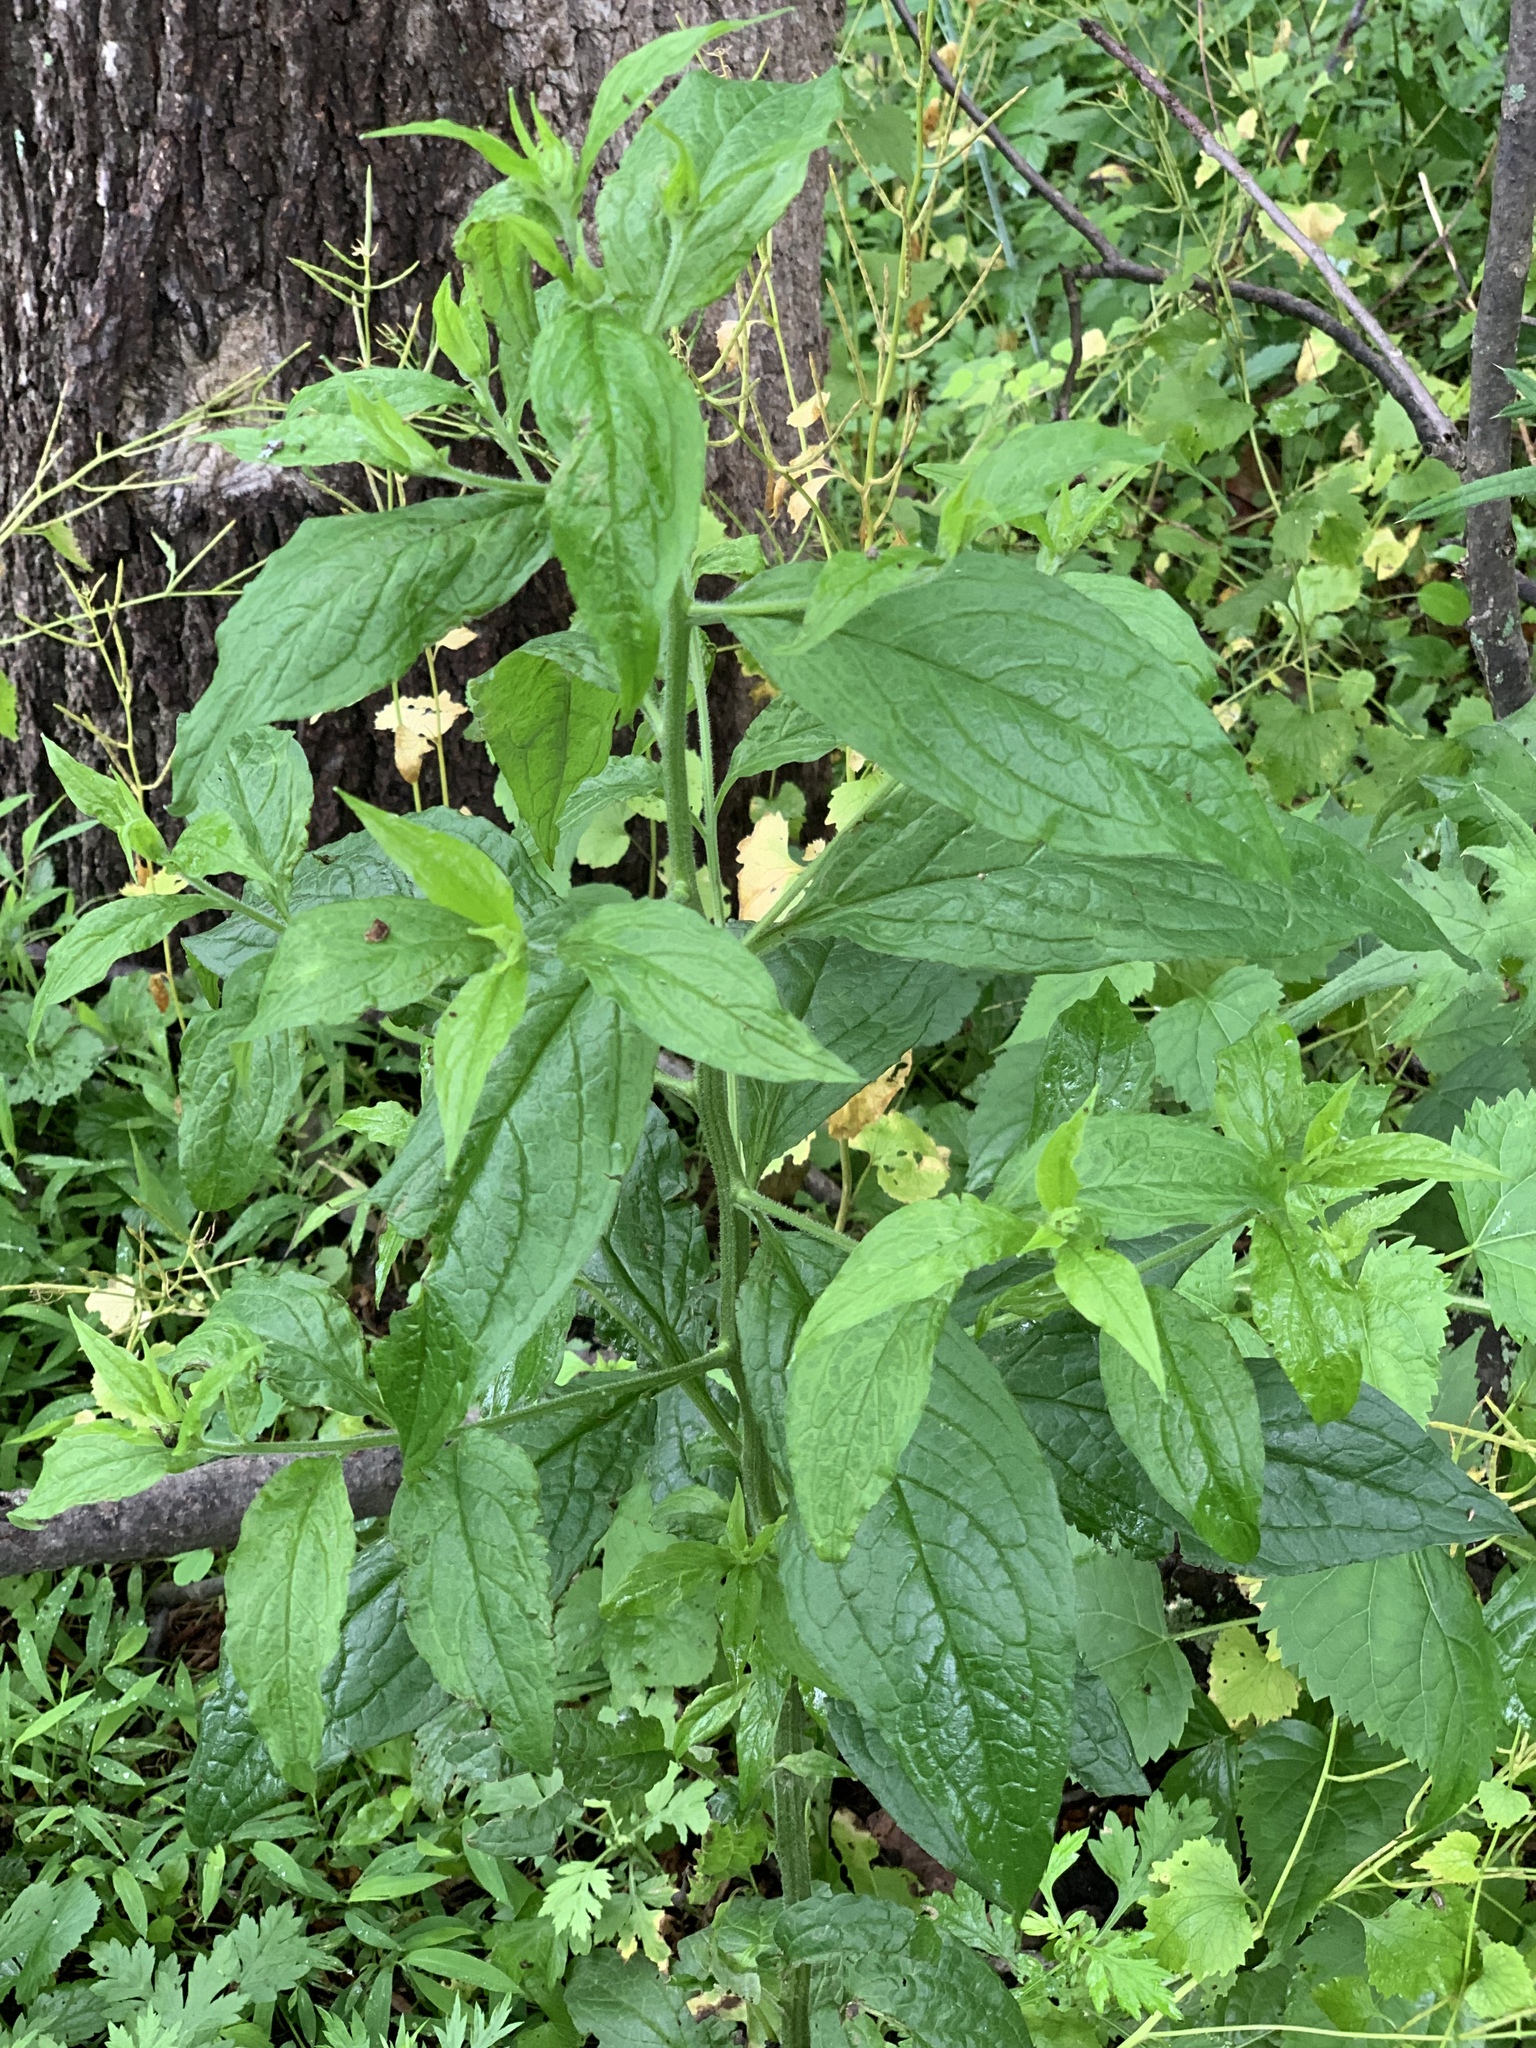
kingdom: Plantae
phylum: Tracheophyta
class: Magnoliopsida
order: Boraginales
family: Boraginaceae
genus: Hackelia
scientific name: Hackelia virginiana
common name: Beggar's-lice
